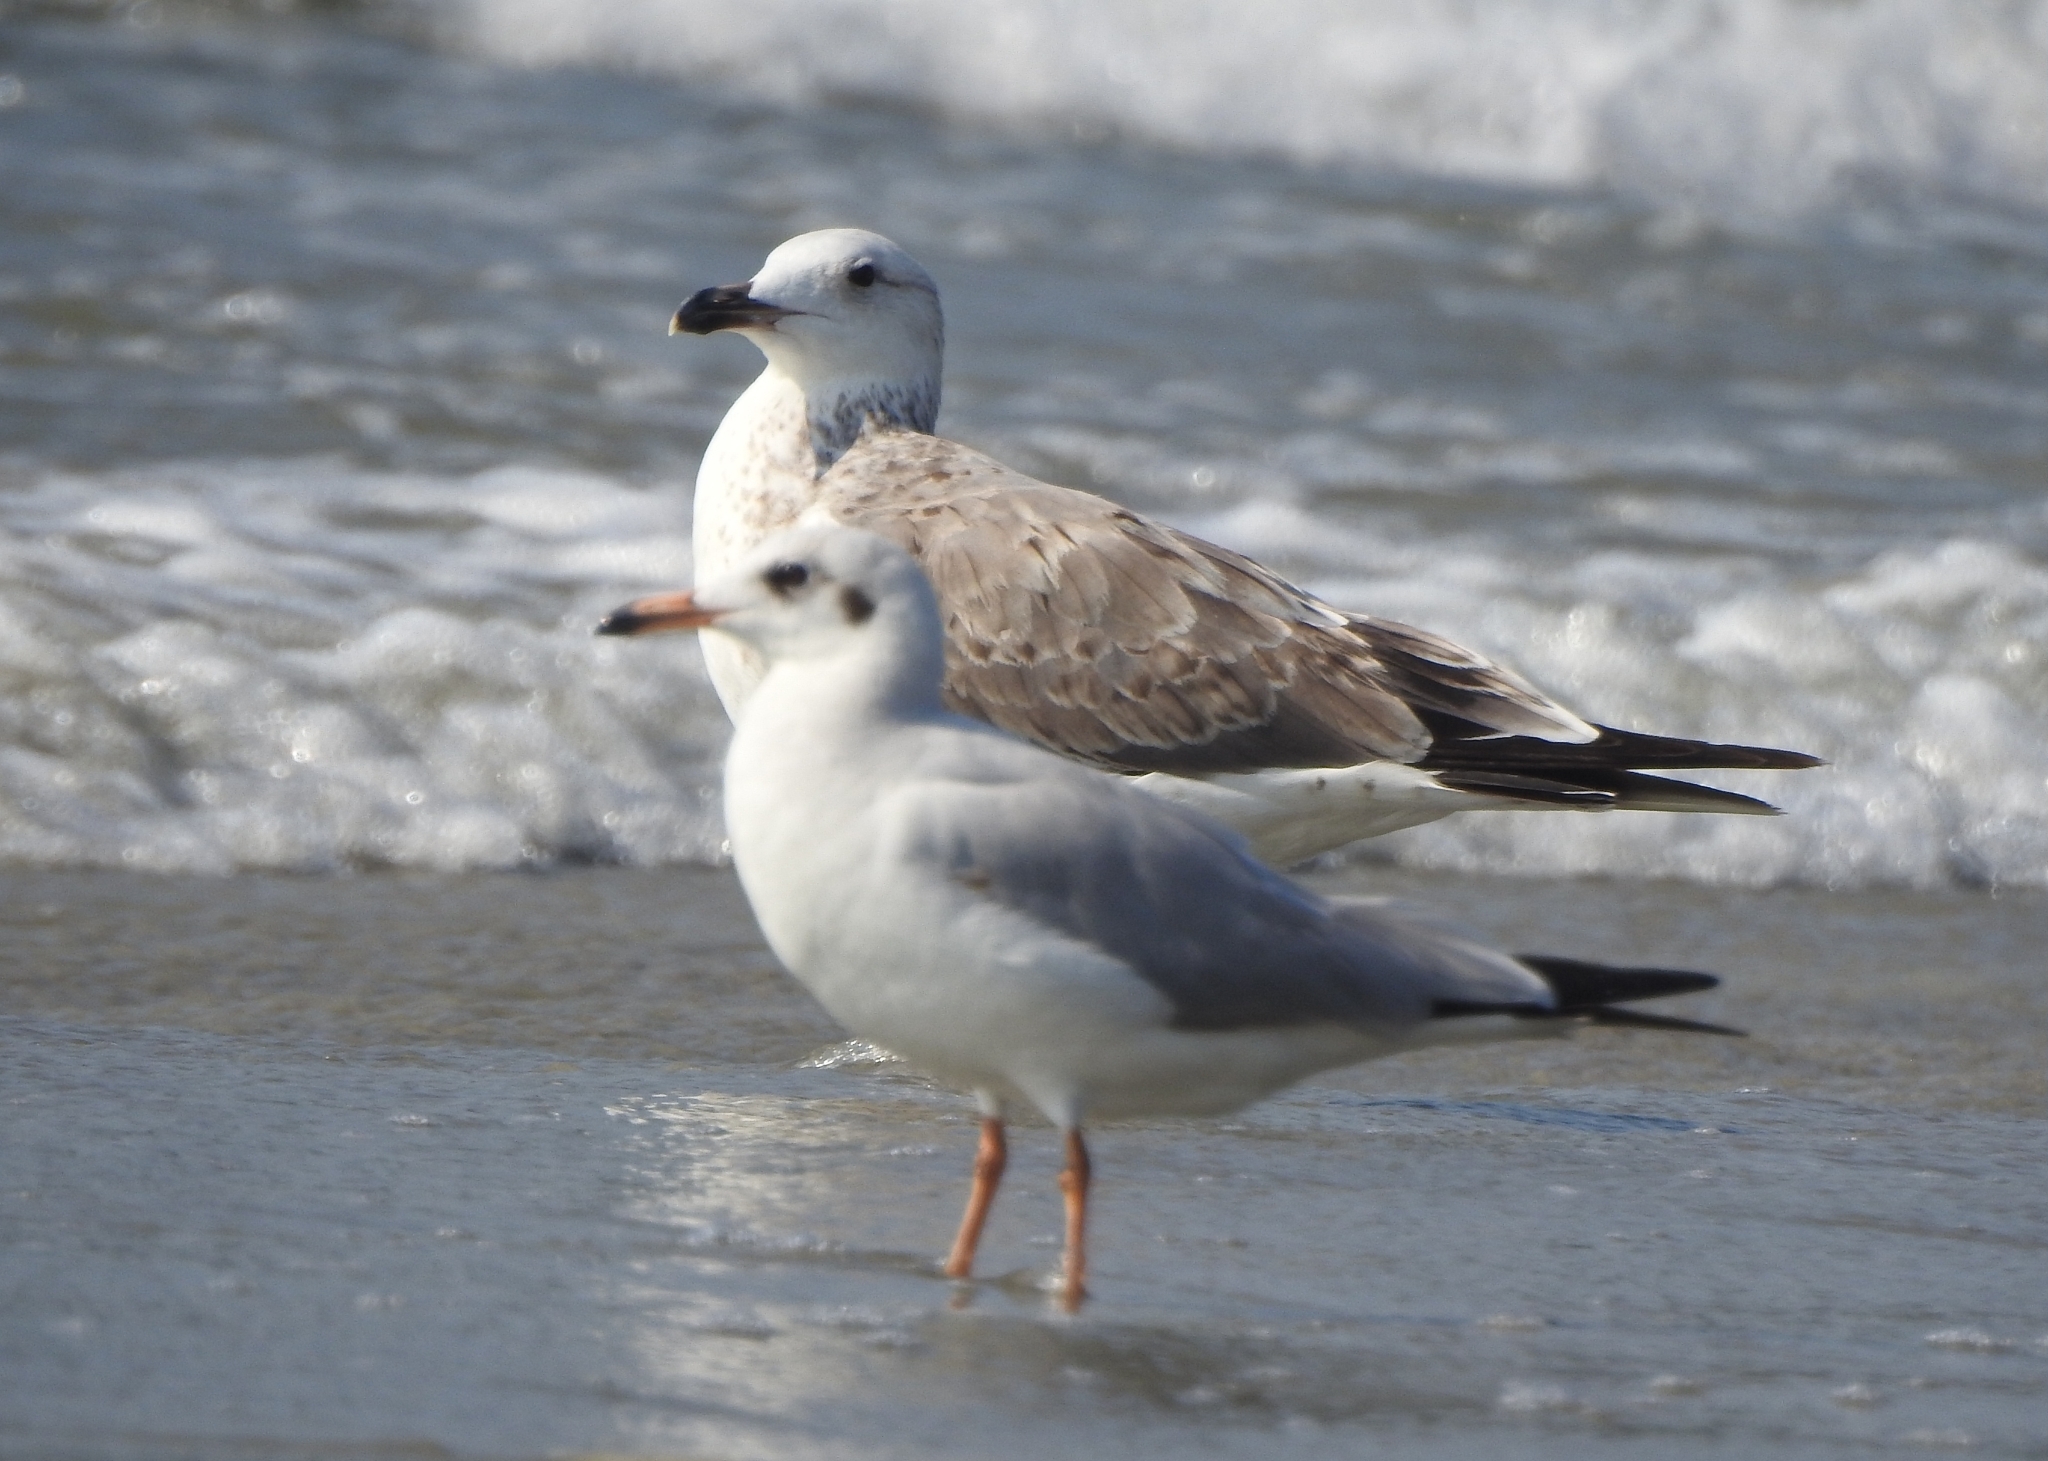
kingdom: Animalia
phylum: Chordata
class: Aves
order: Charadriiformes
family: Laridae
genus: Chroicocephalus
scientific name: Chroicocephalus brunnicephalus
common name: Brown-headed gull
